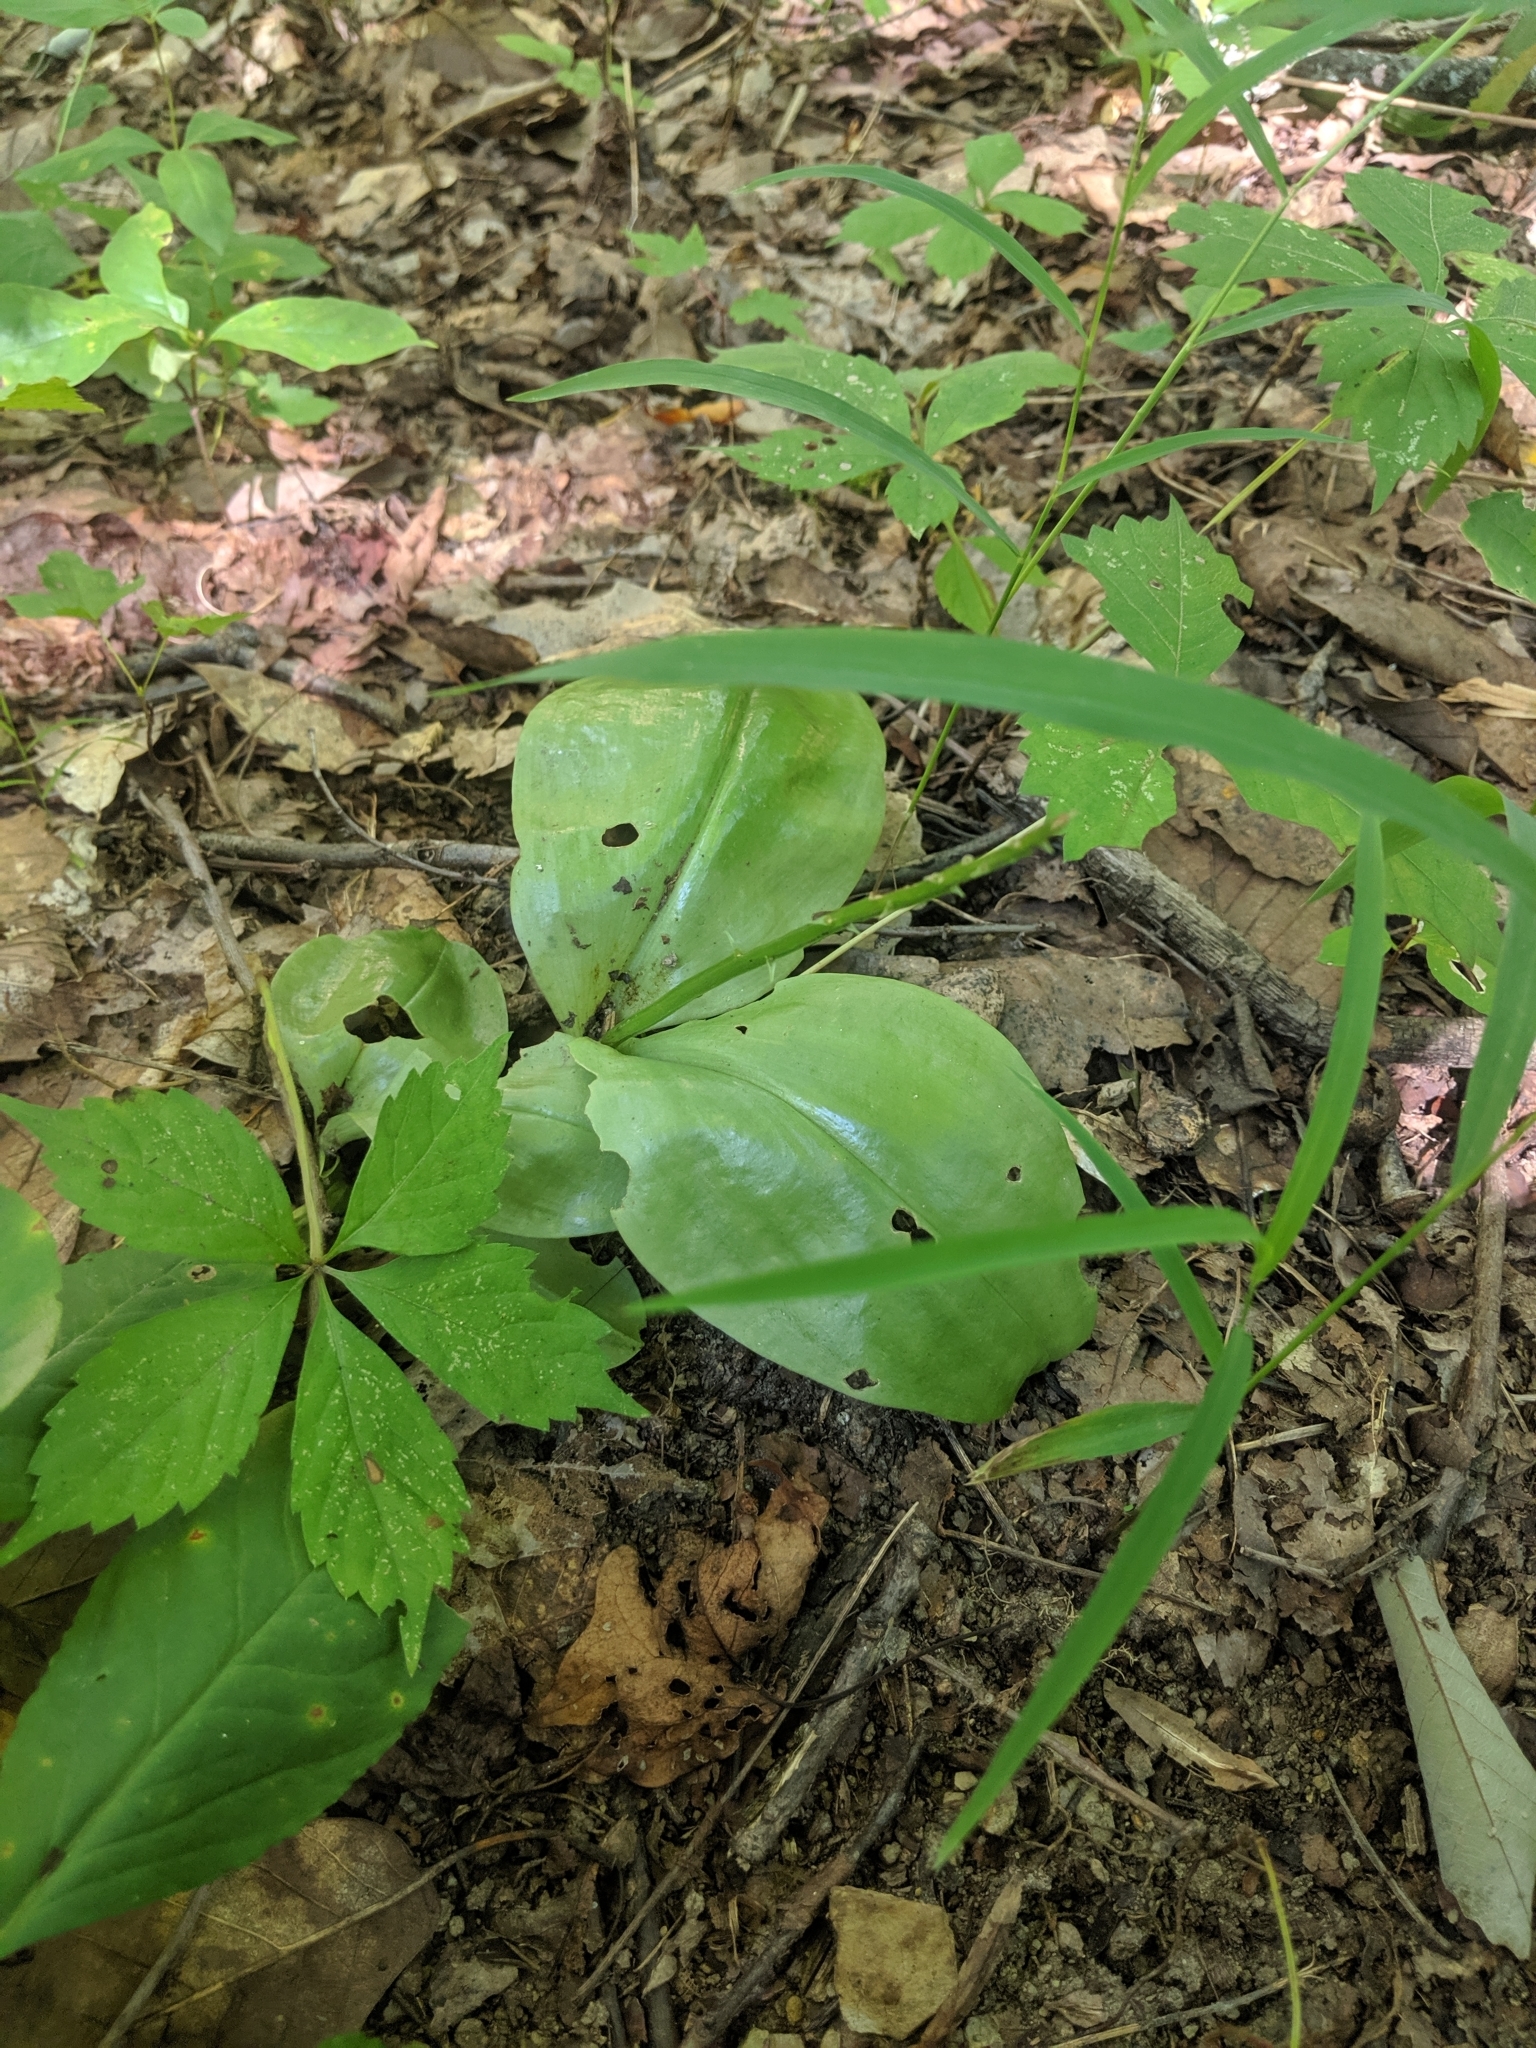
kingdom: Plantae
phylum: Tracheophyta
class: Liliopsida
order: Asparagales
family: Orchidaceae
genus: Liparis
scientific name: Liparis liliifolia
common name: Brown wide-lip orchid
